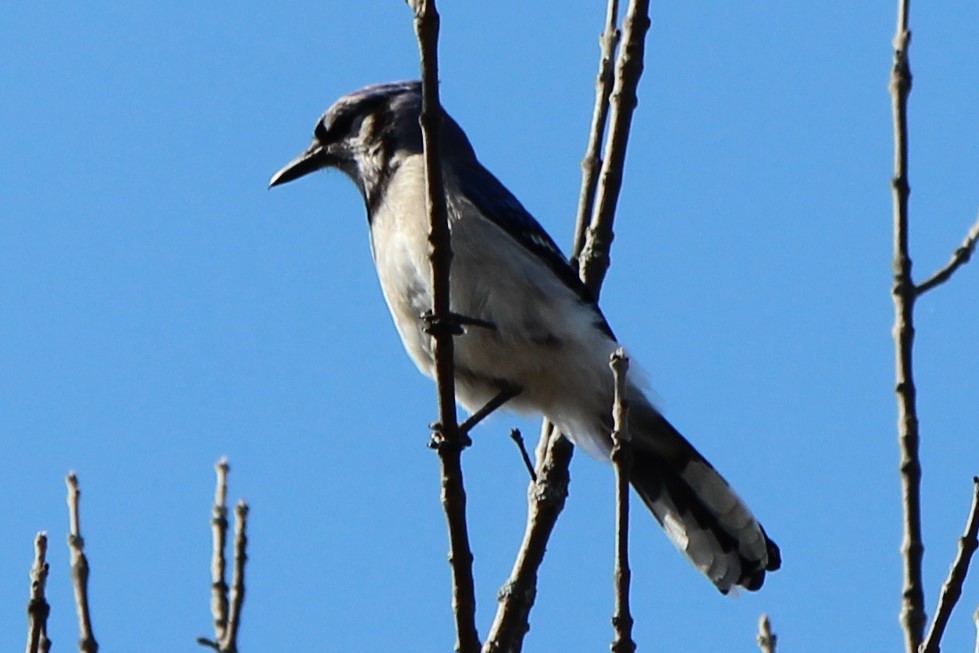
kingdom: Animalia
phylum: Chordata
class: Aves
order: Passeriformes
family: Corvidae
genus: Cyanocitta
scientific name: Cyanocitta cristata
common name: Blue jay
